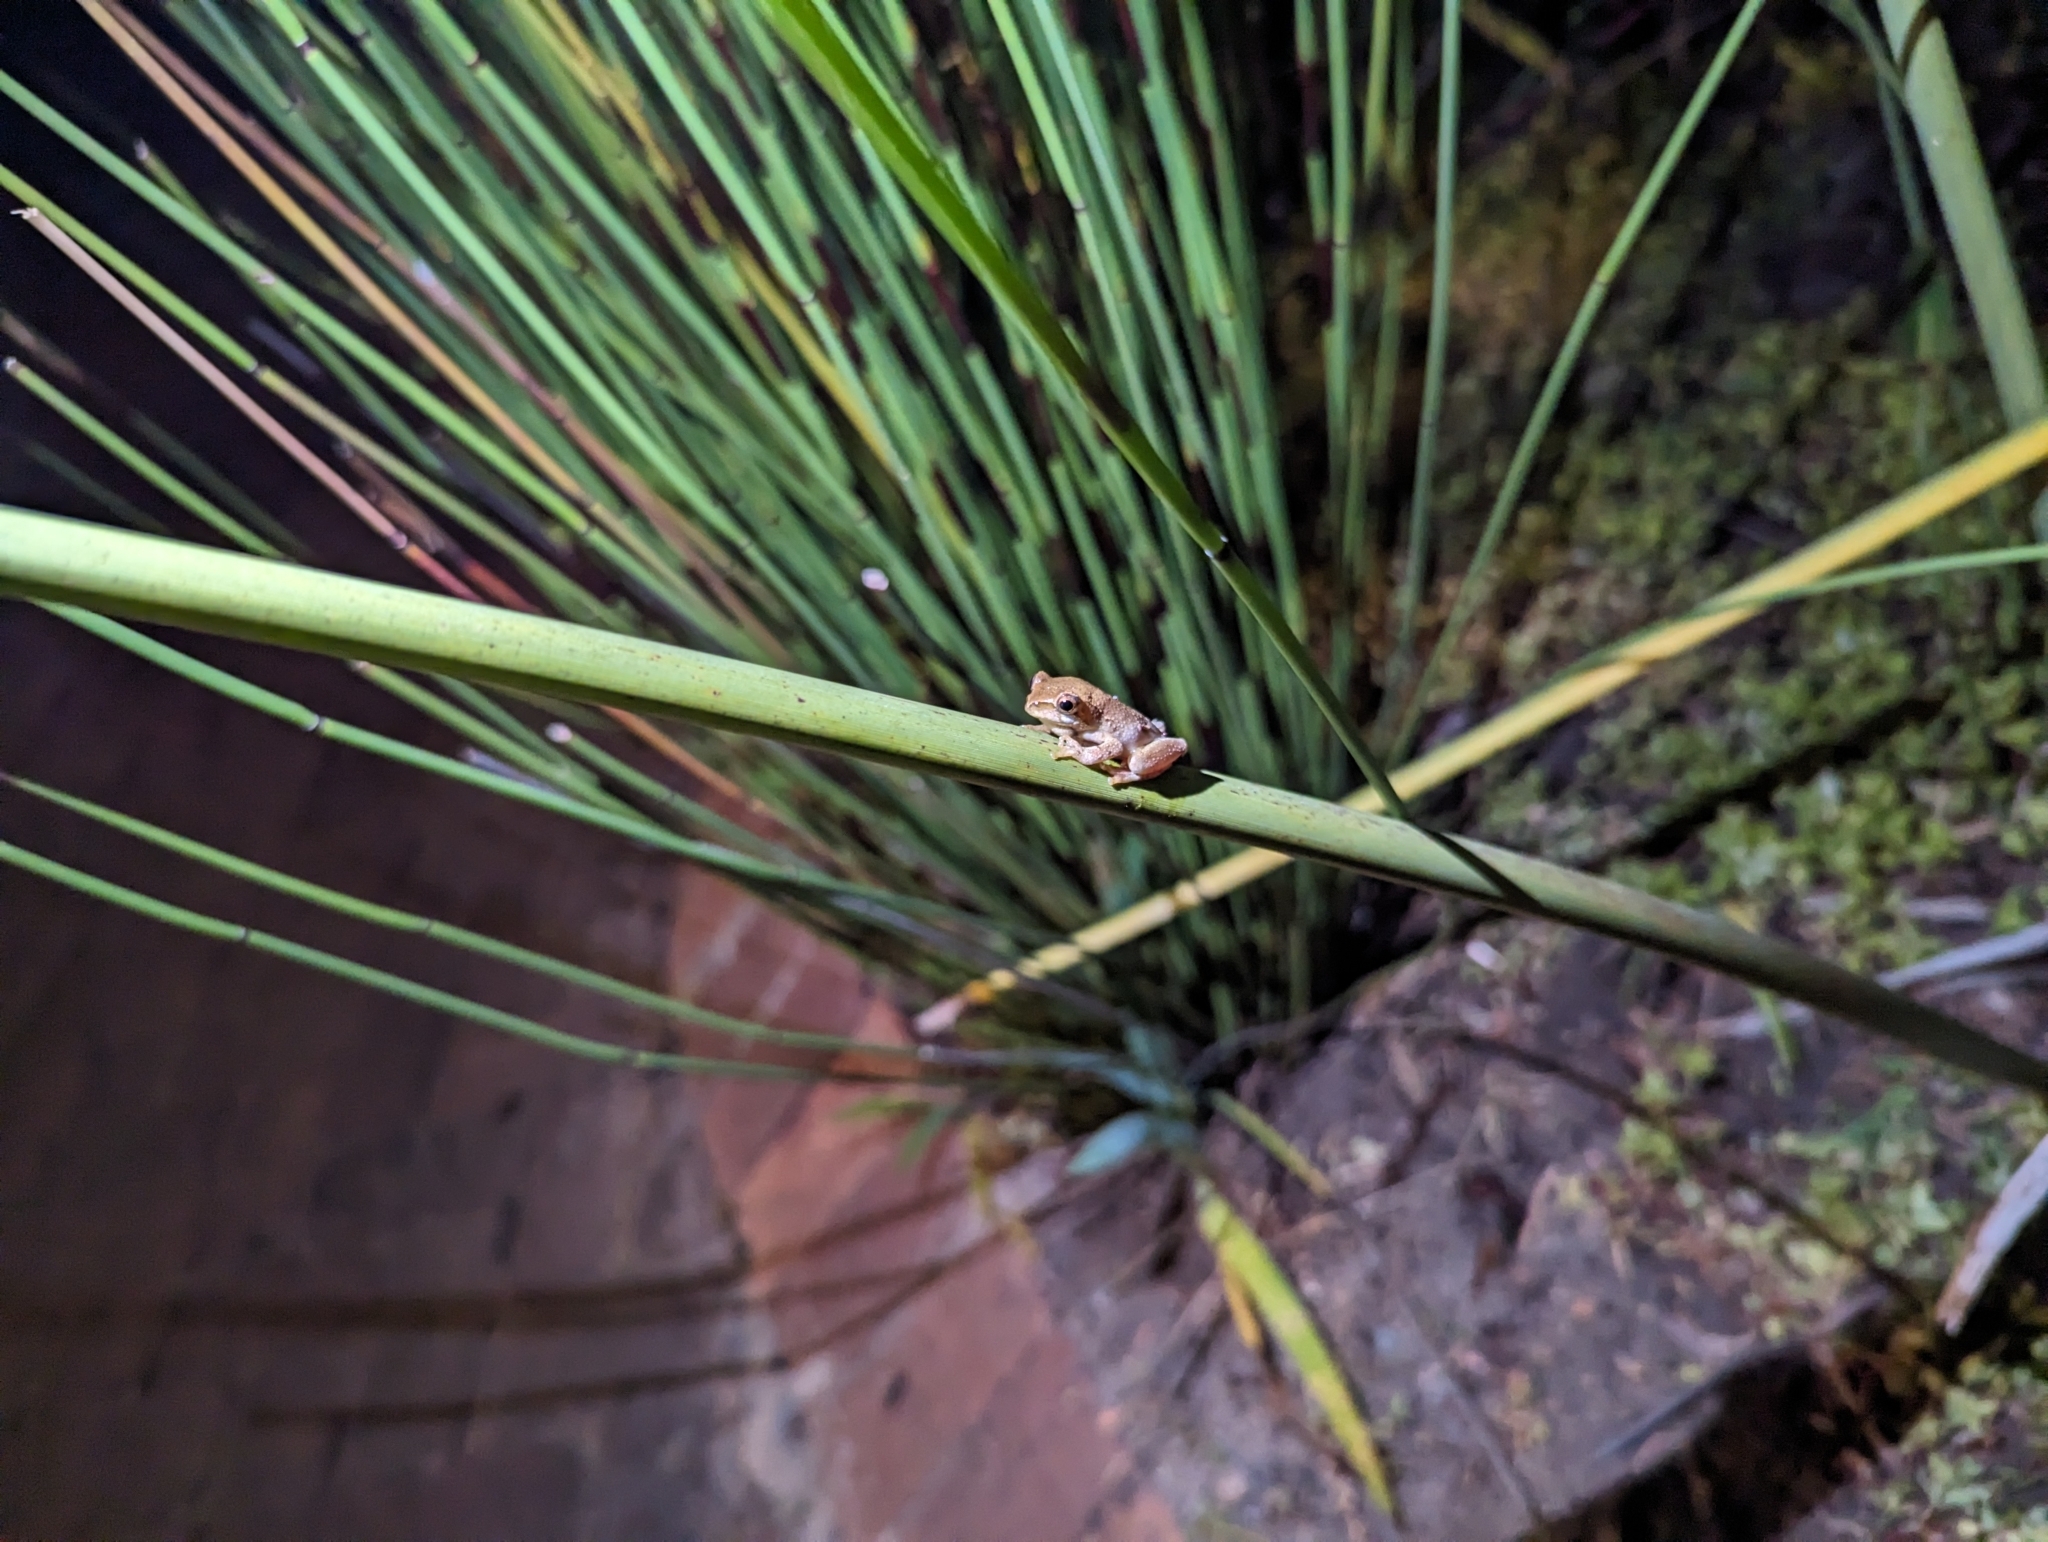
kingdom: Animalia
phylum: Chordata
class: Amphibia
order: Anura
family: Hyperoliidae
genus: Hyperolius
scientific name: Hyperolius marmoratus
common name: Painted reed frog
